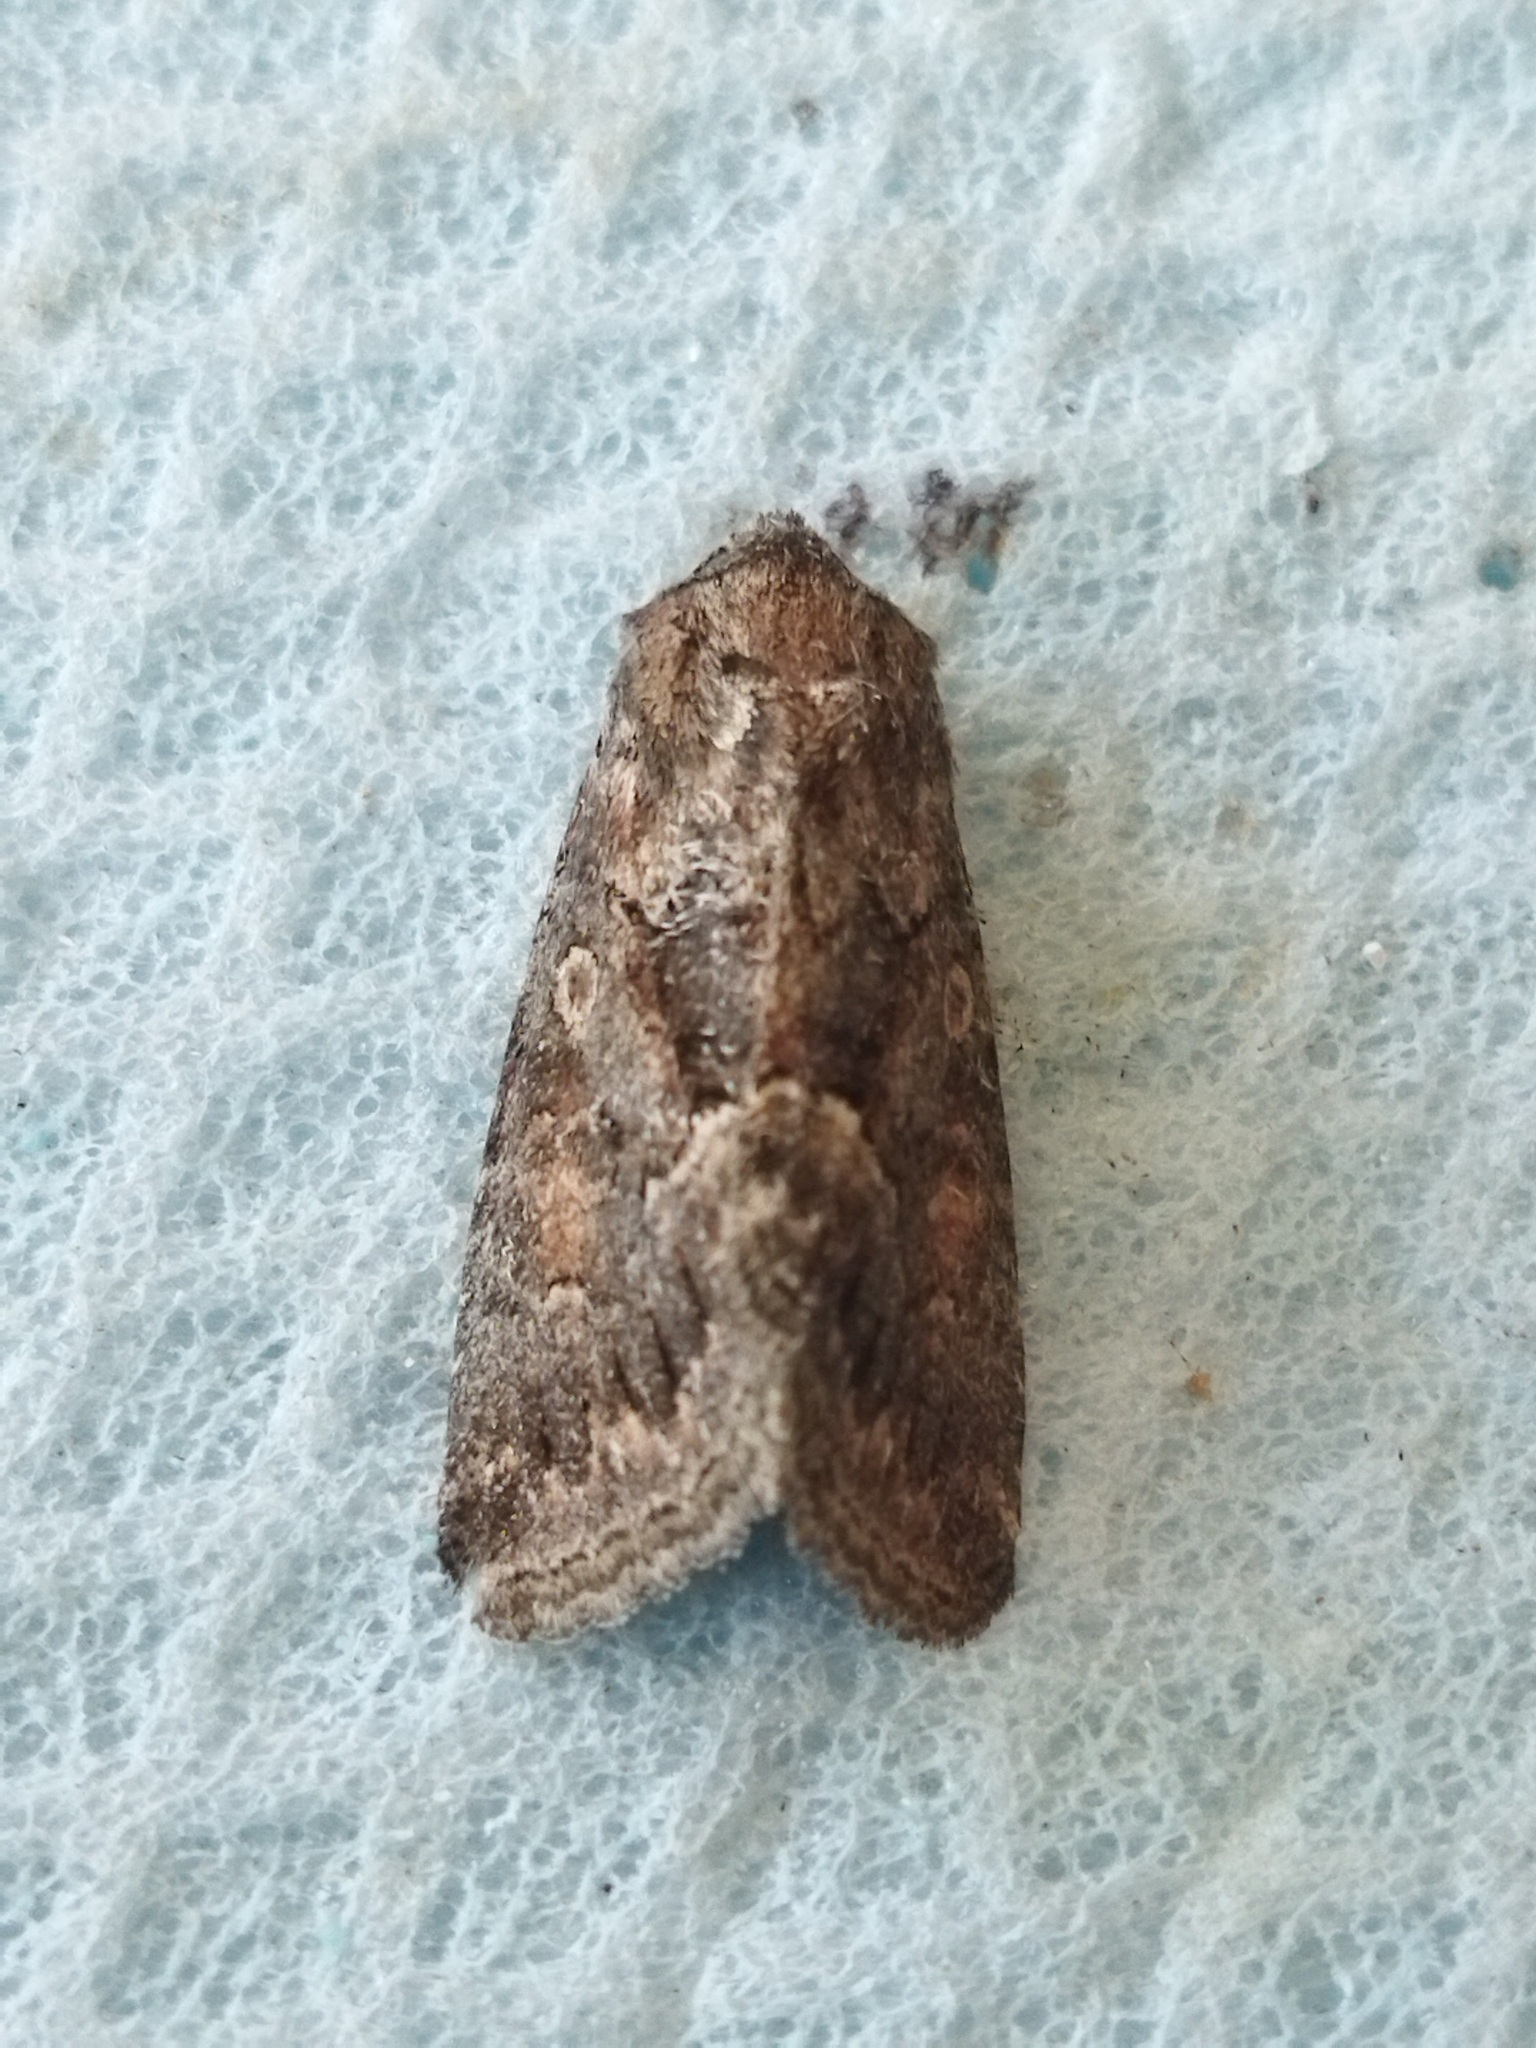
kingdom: Animalia
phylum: Arthropoda
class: Insecta
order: Lepidoptera
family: Noctuidae
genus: Thalpophila
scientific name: Thalpophila matura
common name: Straw underwing
